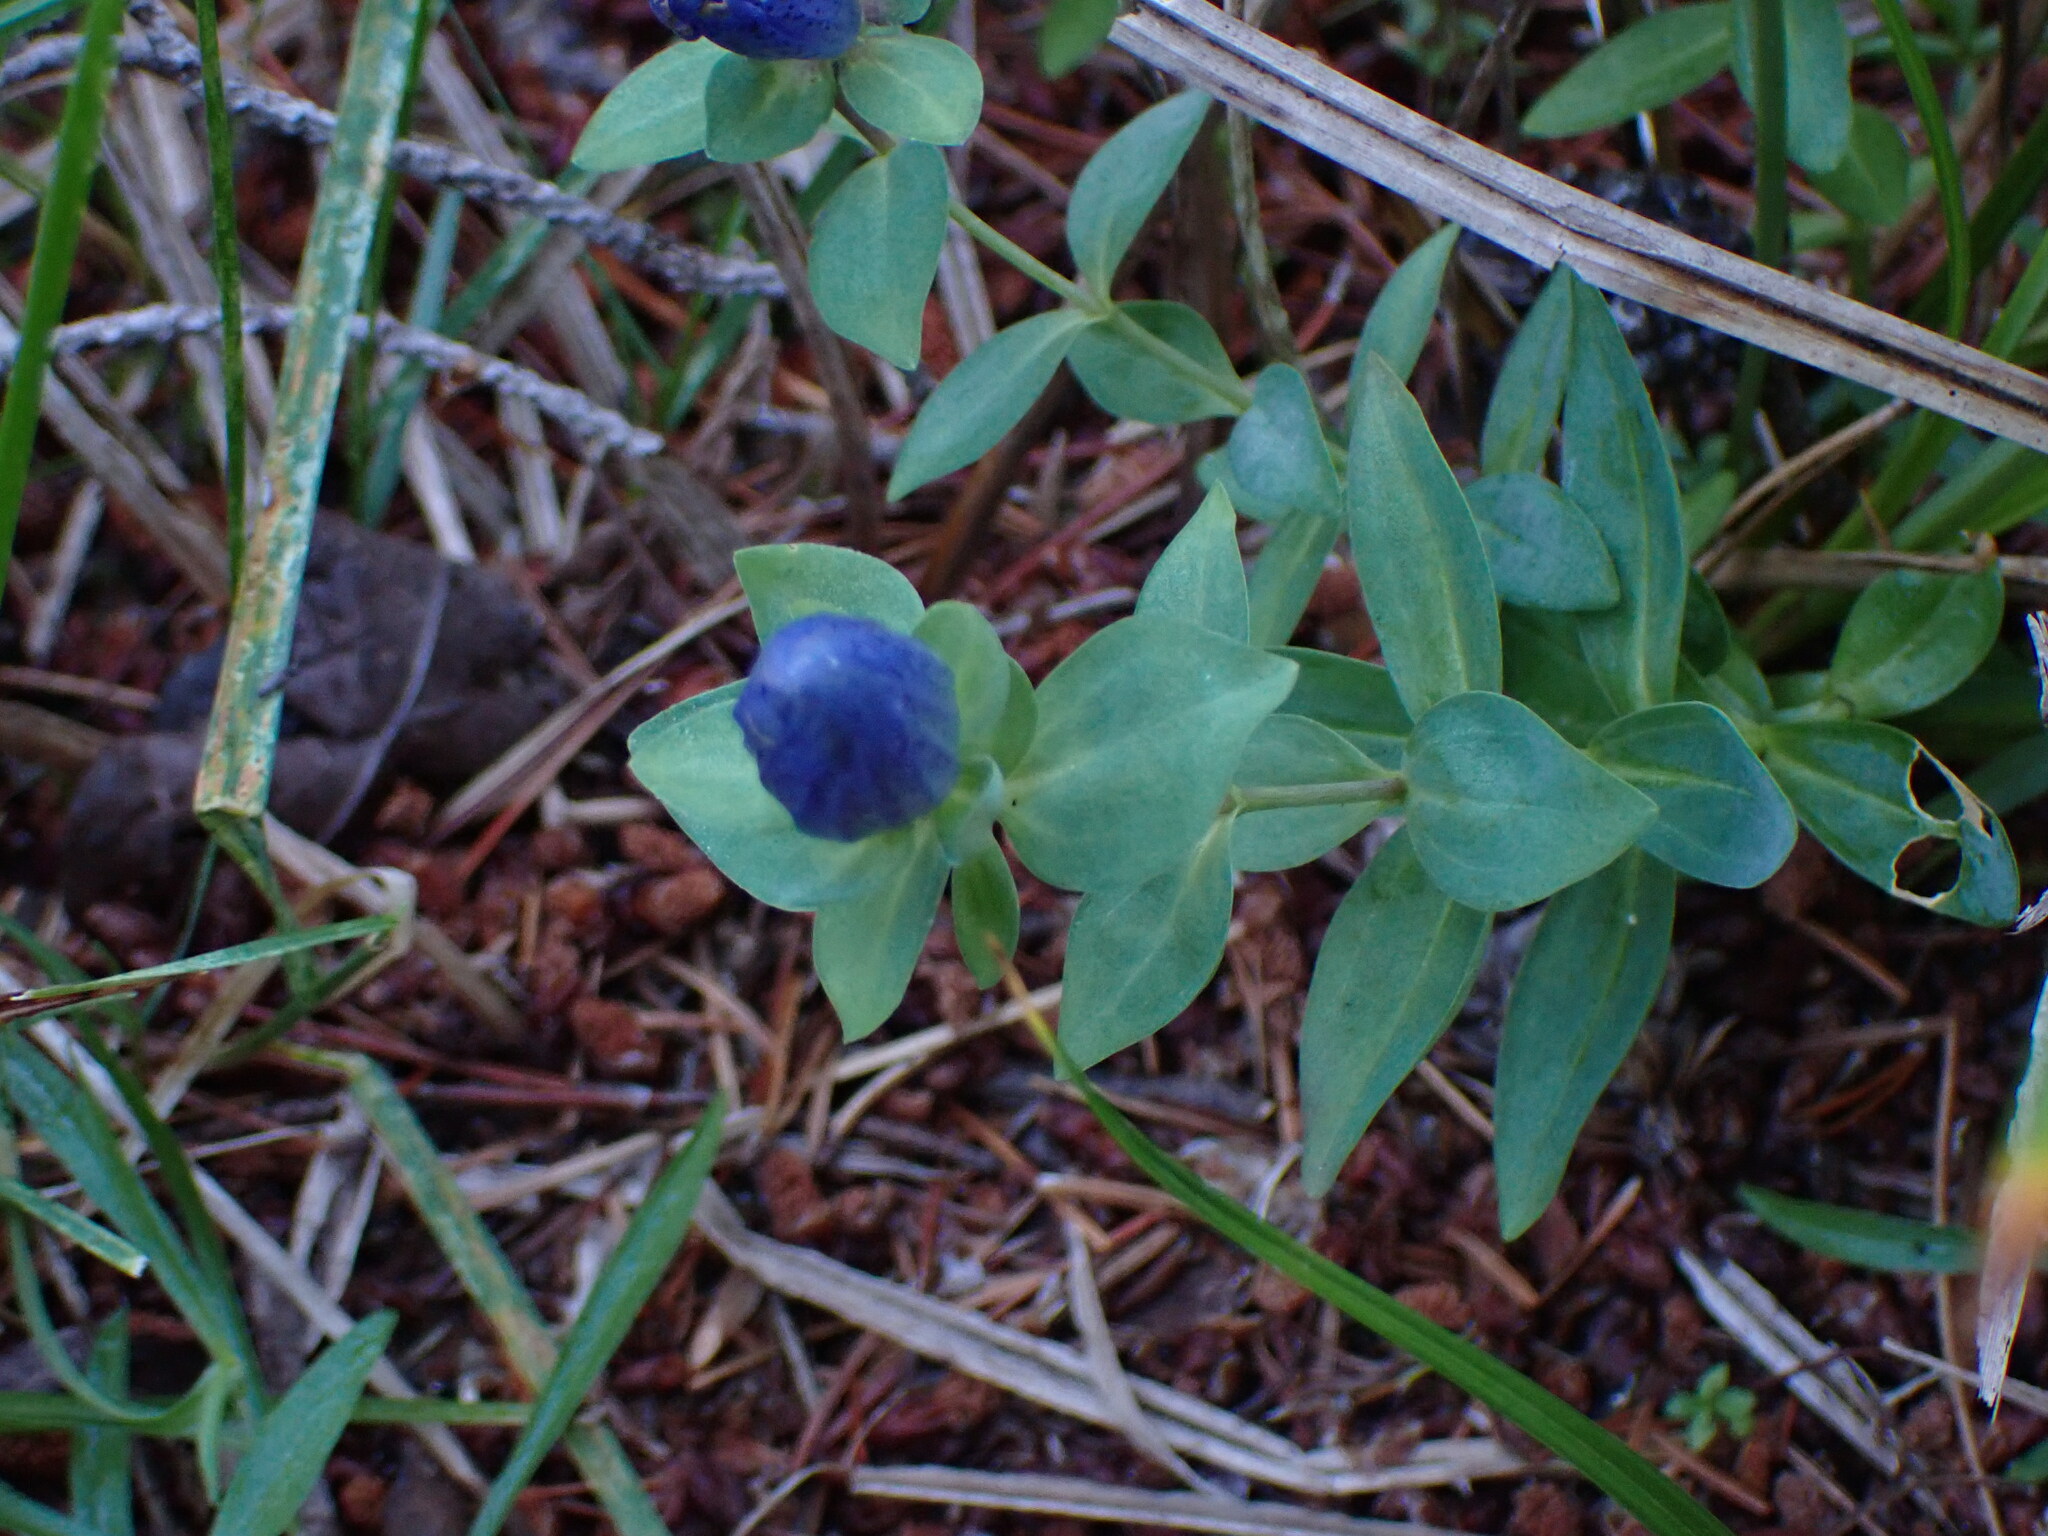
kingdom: Plantae
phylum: Tracheophyta
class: Magnoliopsida
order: Gentianales
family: Gentianaceae
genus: Gentiana
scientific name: Gentiana sceptrum
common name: Pacific gentian
